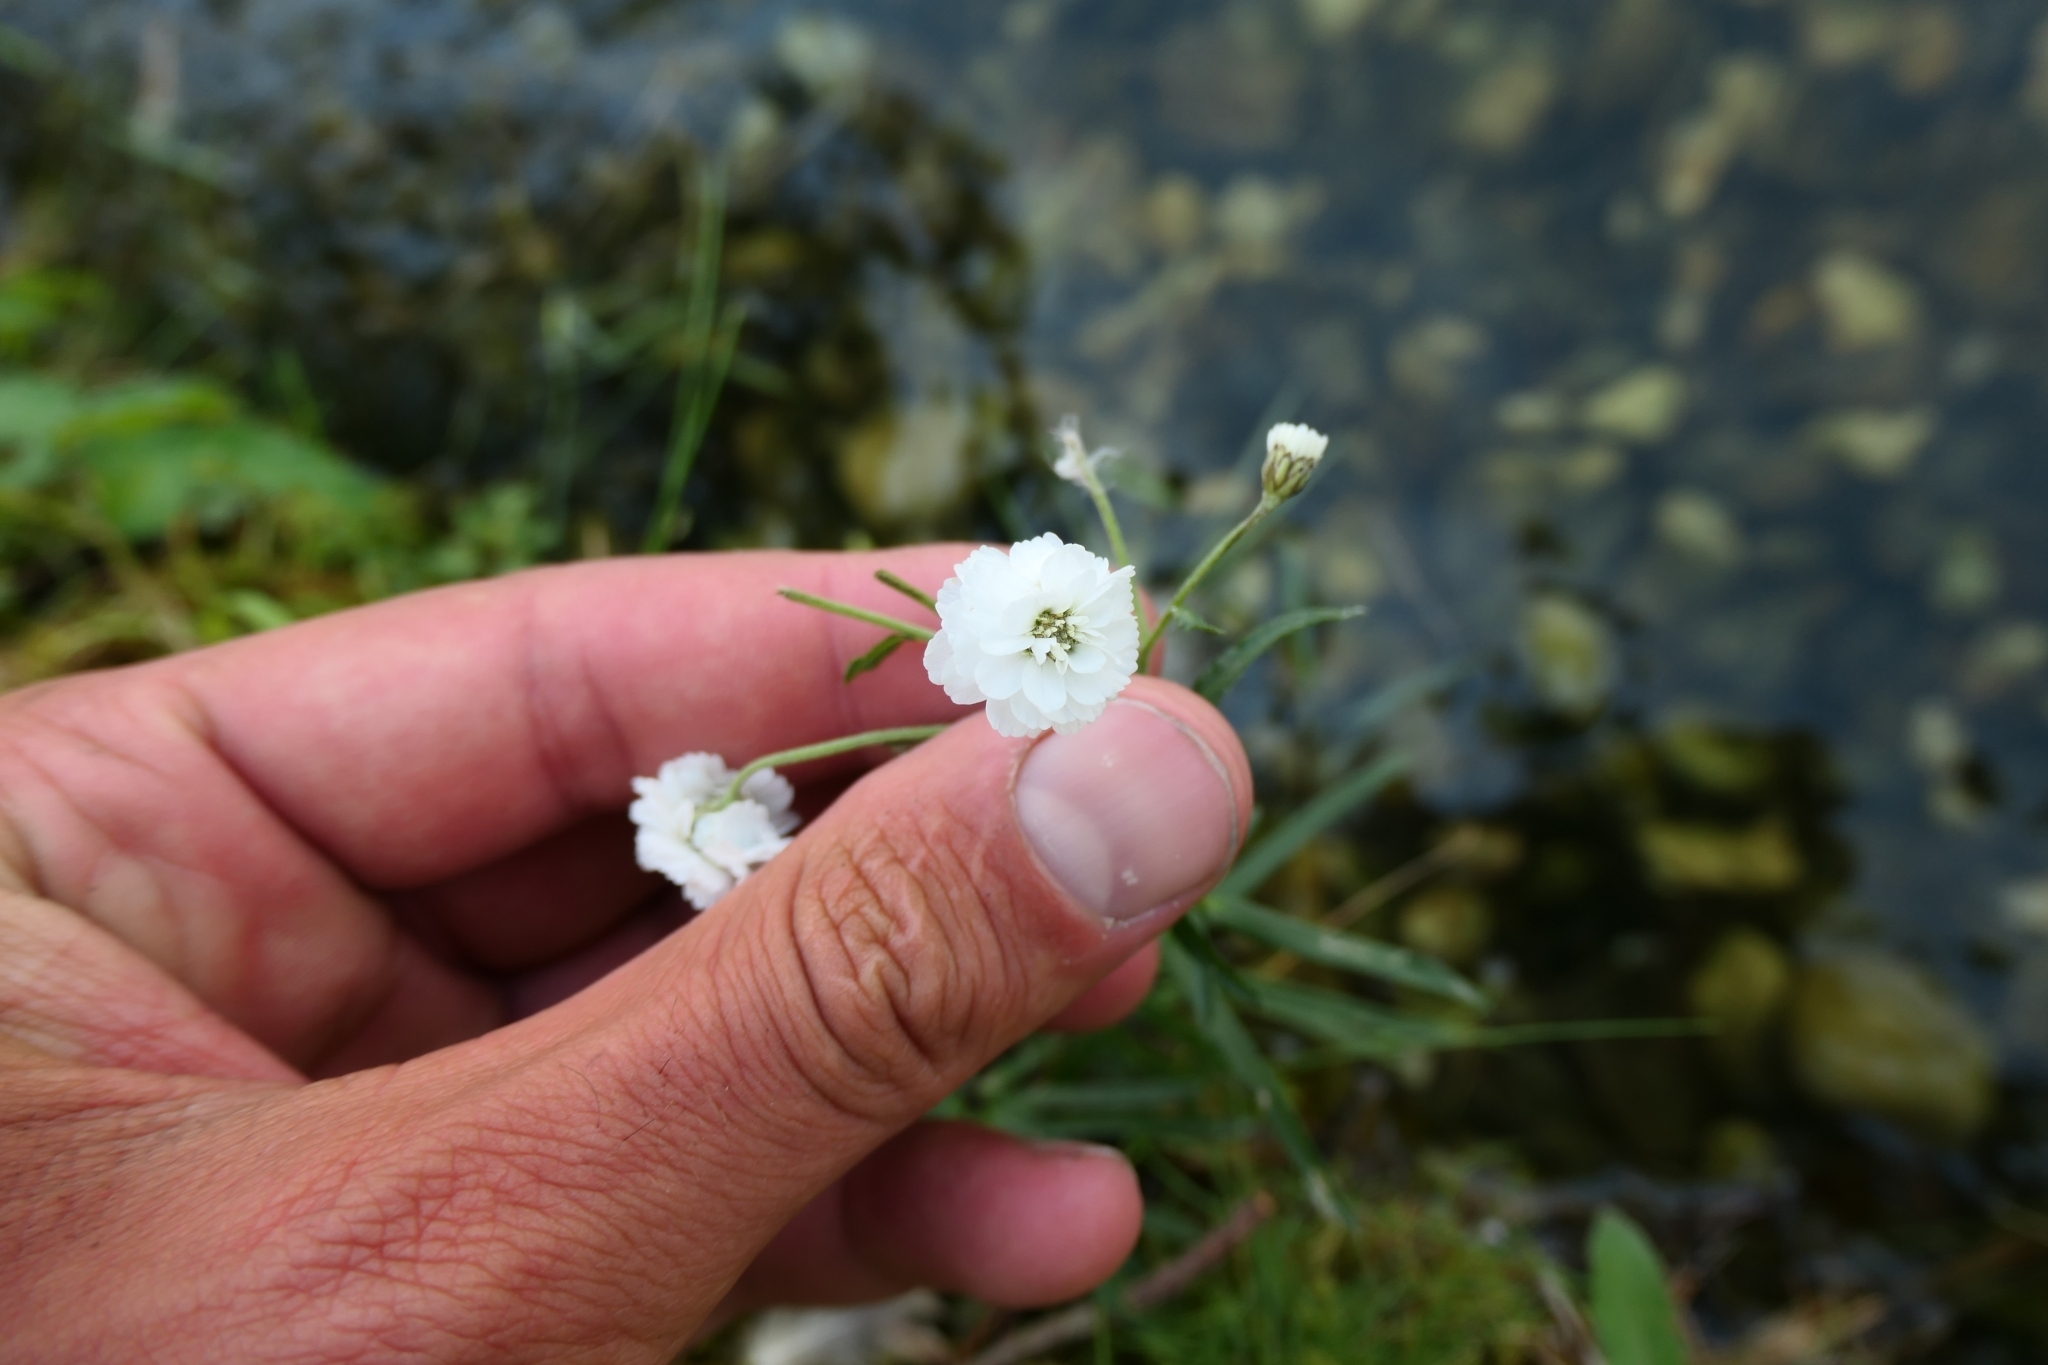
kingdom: Plantae
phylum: Tracheophyta
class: Magnoliopsida
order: Asterales
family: Asteraceae
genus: Achillea
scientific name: Achillea ptarmica
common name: Sneezeweed
